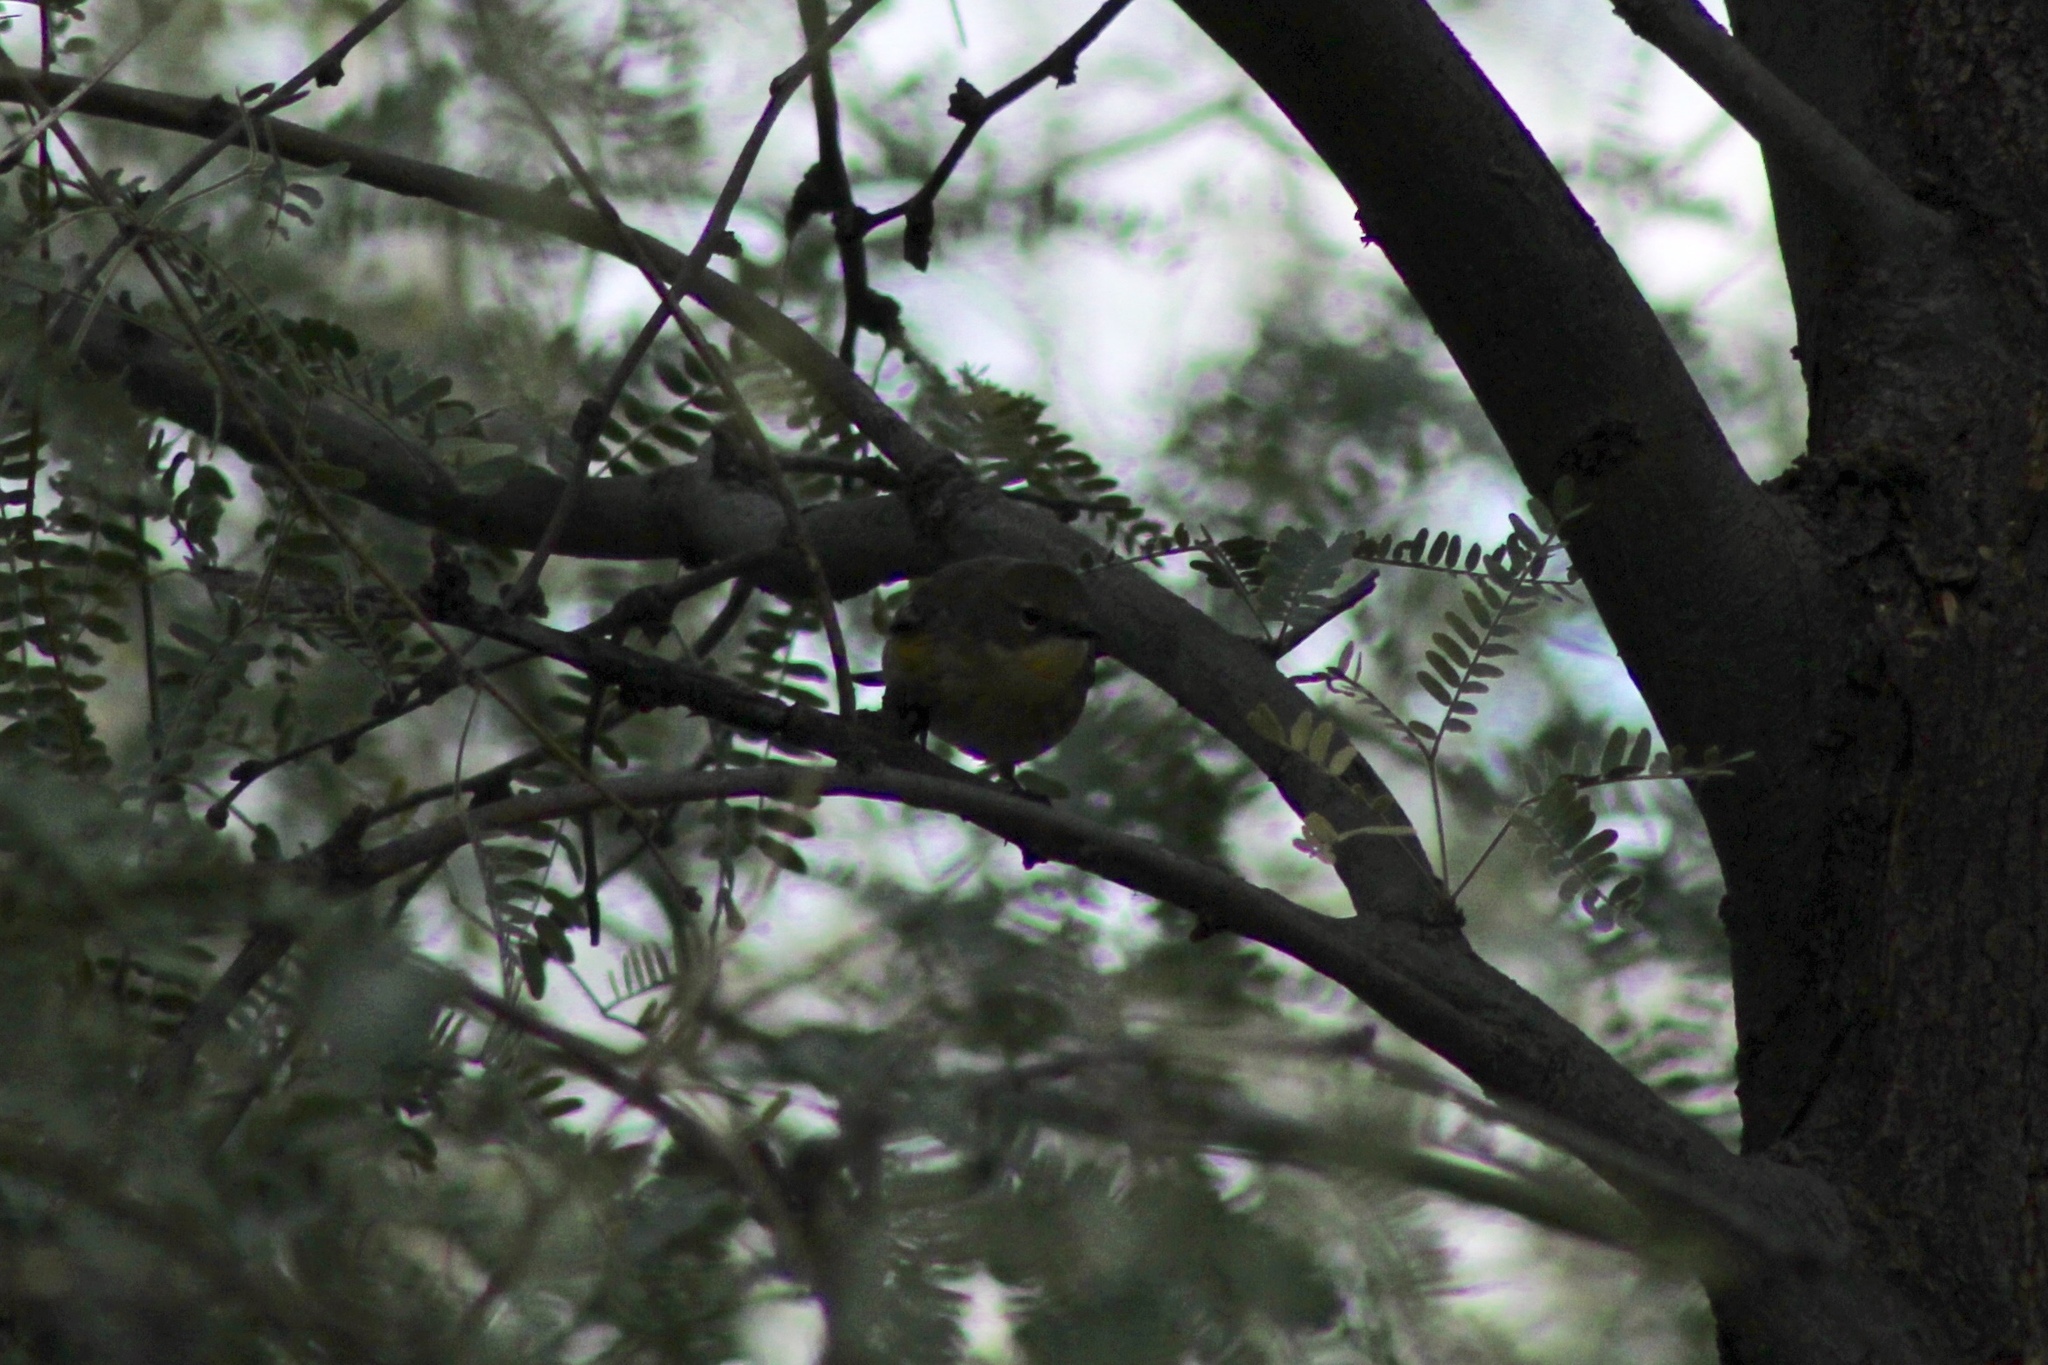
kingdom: Animalia
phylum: Chordata
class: Aves
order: Passeriformes
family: Parulidae
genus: Setophaga
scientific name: Setophaga auduboni
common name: Audubon's warbler
